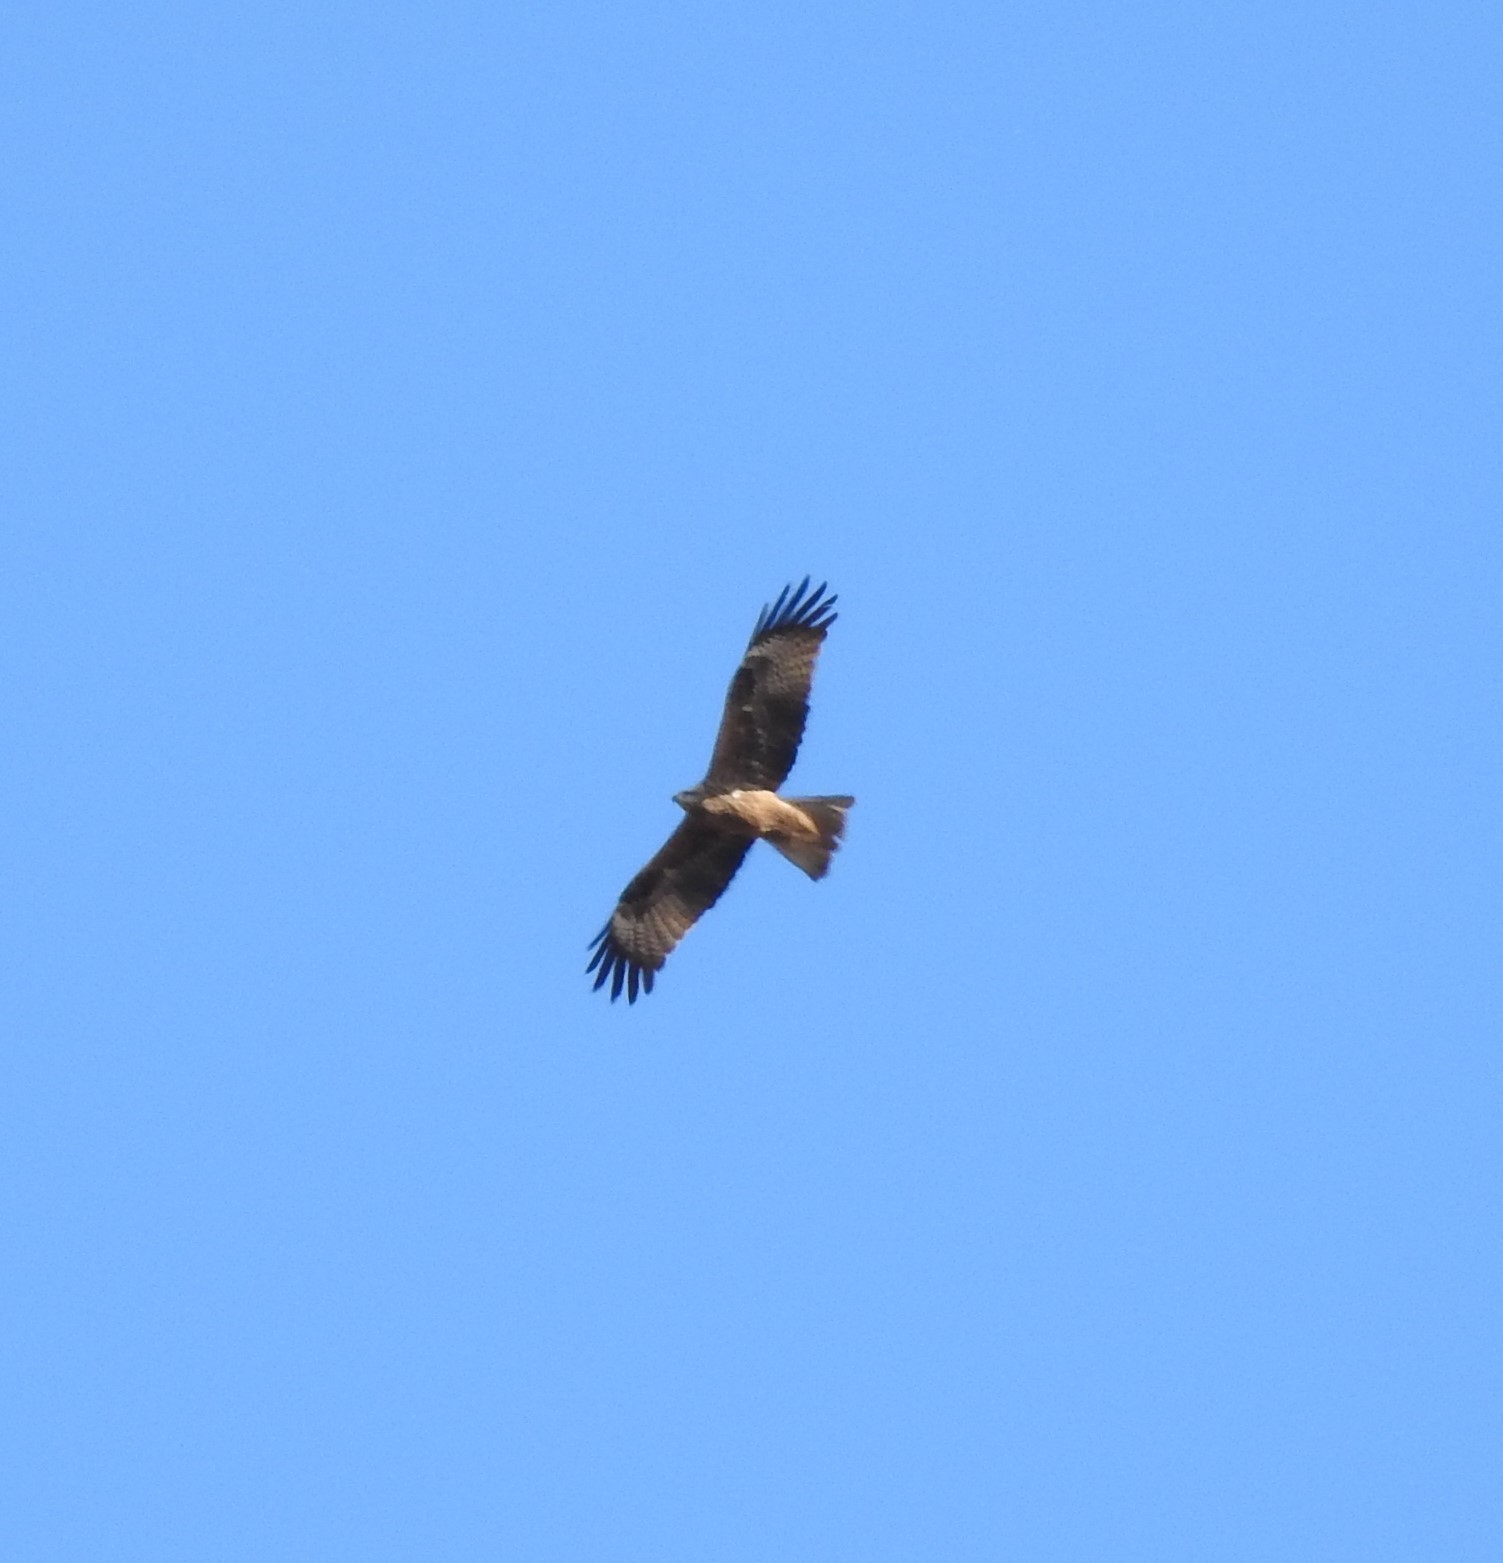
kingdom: Animalia
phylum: Chordata
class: Aves
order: Accipitriformes
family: Accipitridae
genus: Milvus
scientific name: Milvus migrans
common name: Black kite
